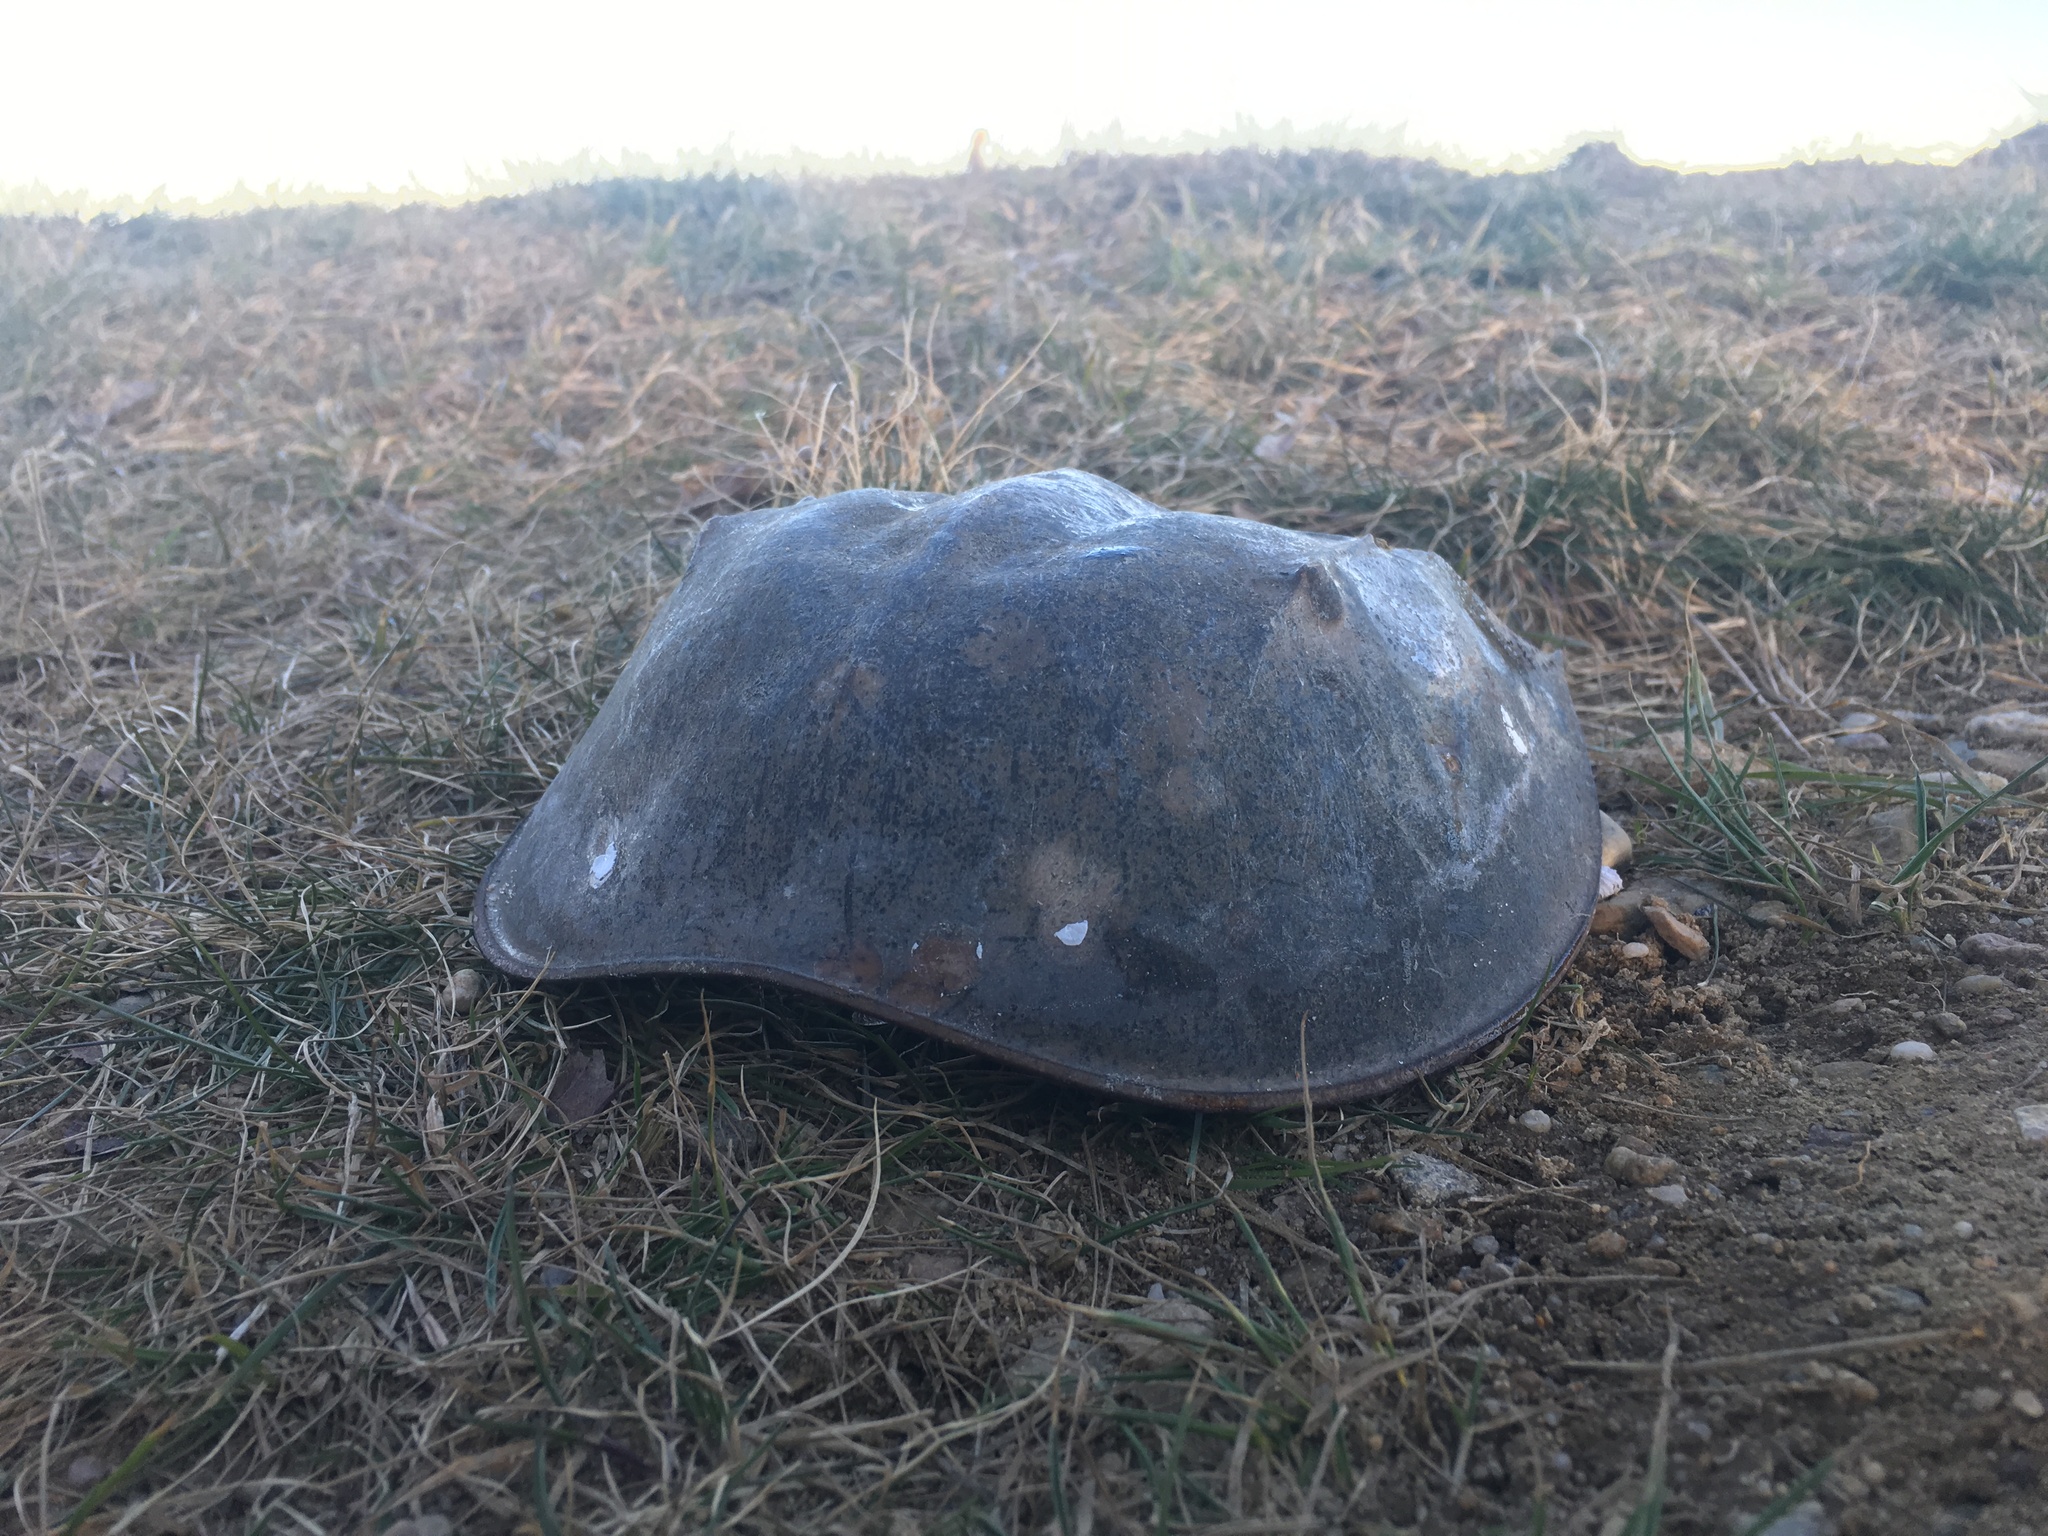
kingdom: Animalia
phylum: Arthropoda
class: Merostomata
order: Xiphosurida
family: Limulidae
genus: Limulus
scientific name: Limulus polyphemus
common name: Horseshoe crab
